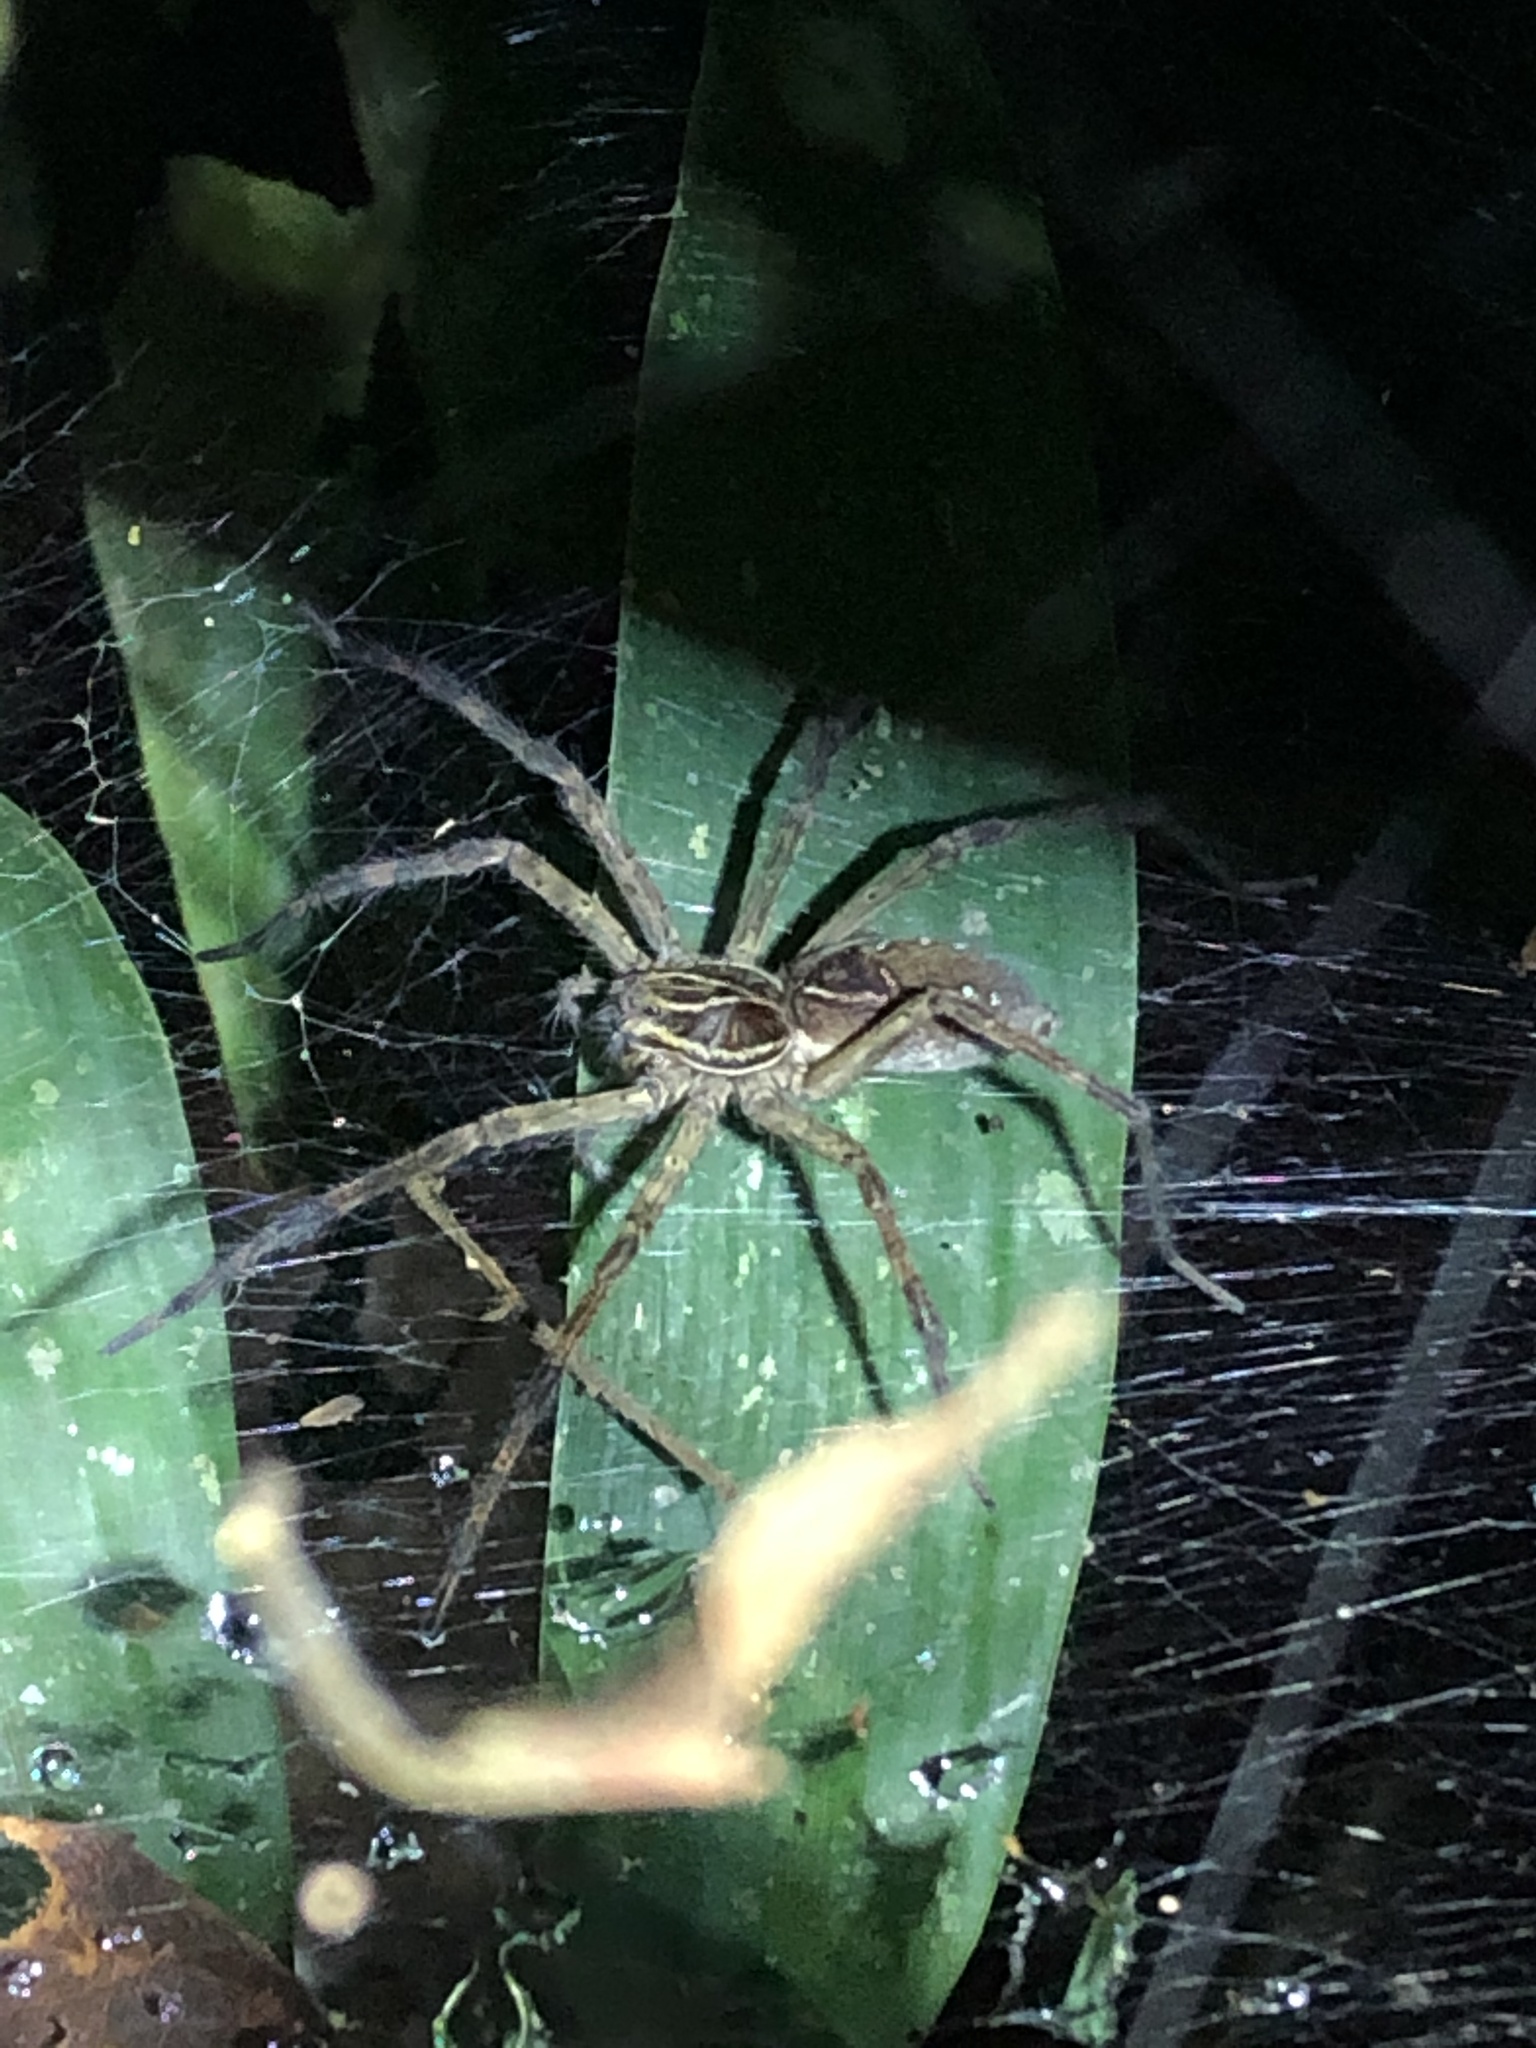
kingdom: Animalia
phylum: Arthropoda
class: Arachnida
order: Araneae
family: Lycosidae
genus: Aglaoctenus
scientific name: Aglaoctenus lagotis
